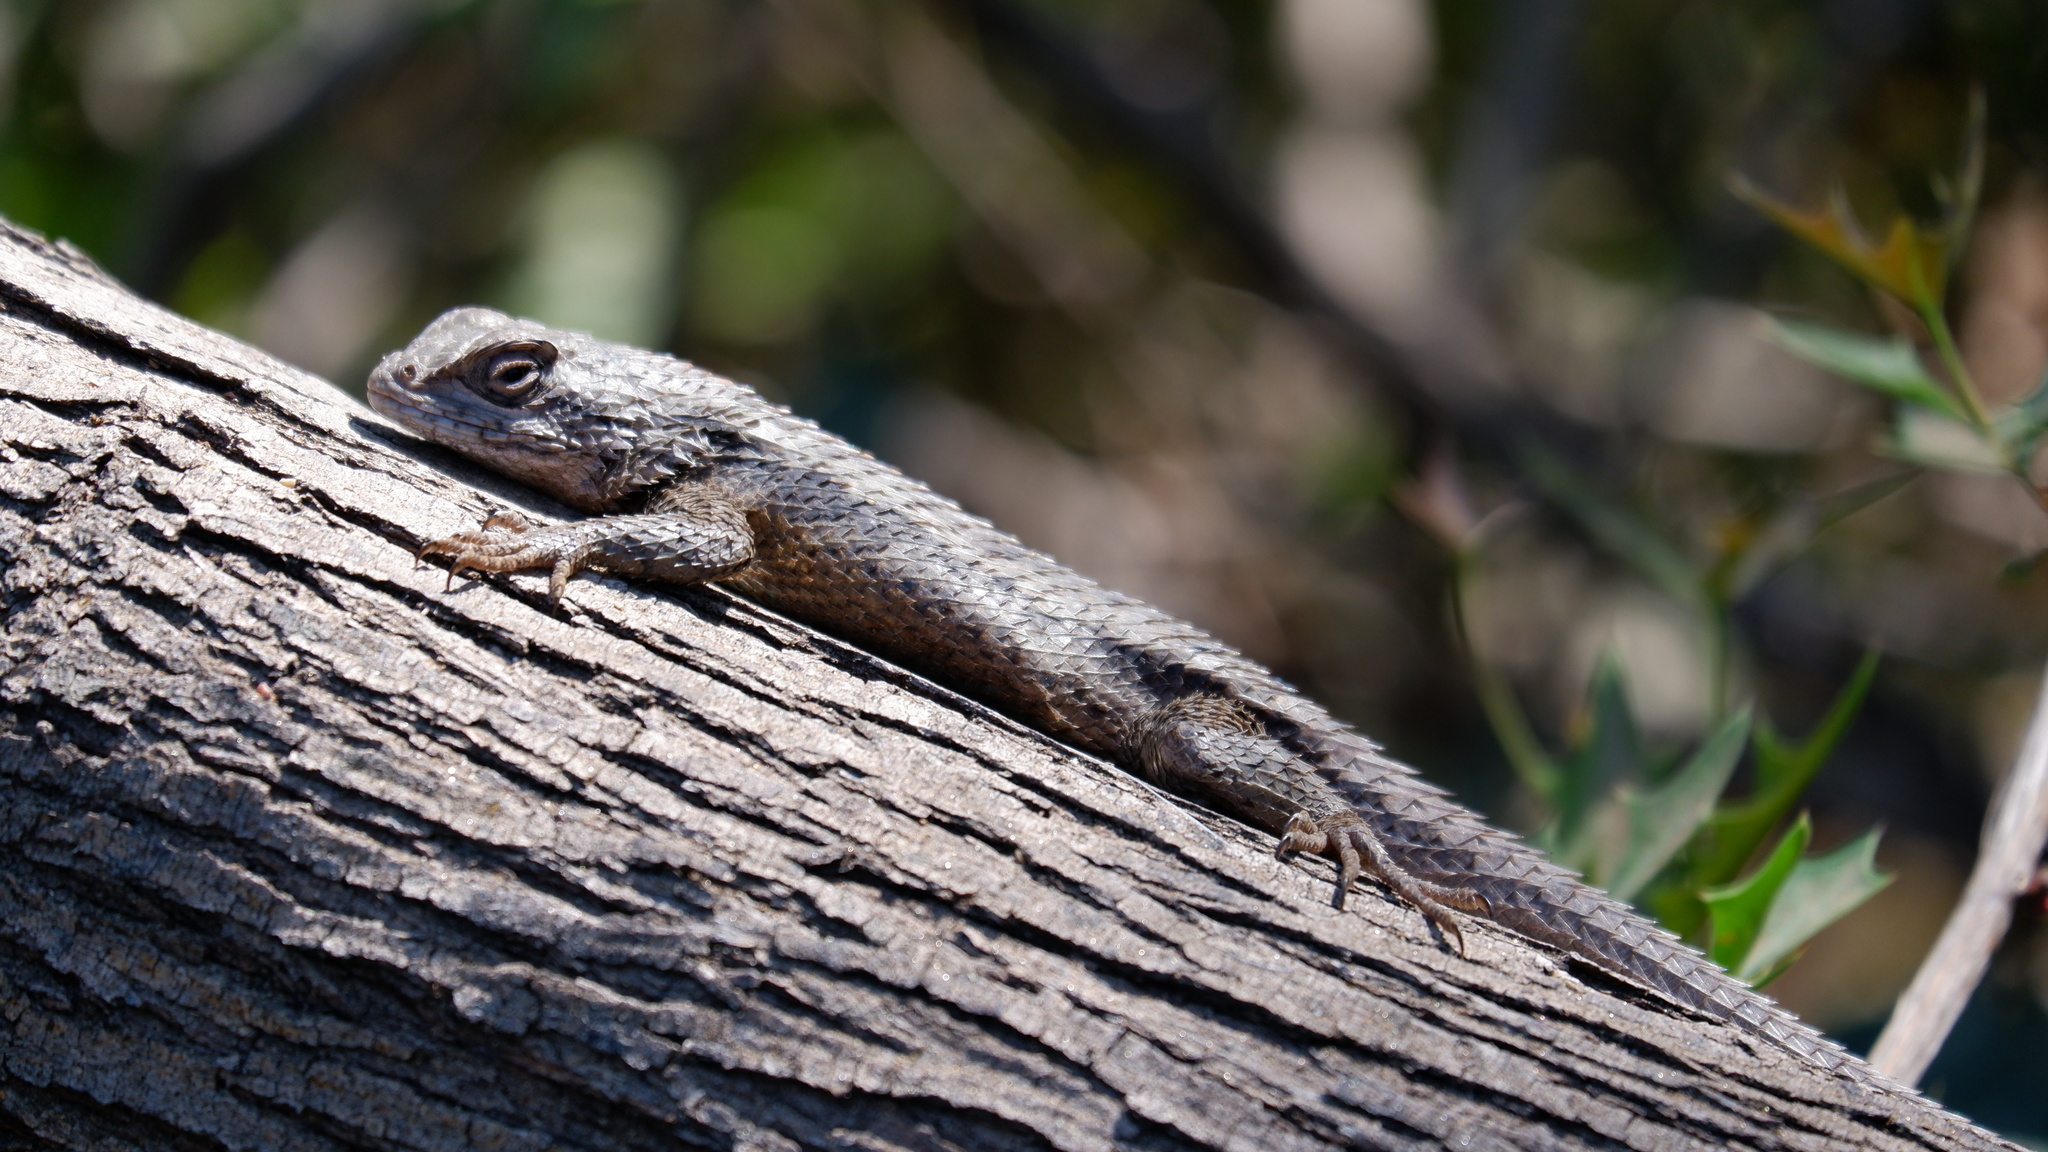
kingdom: Animalia
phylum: Chordata
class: Squamata
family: Phrynosomatidae
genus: Sceloporus
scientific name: Sceloporus olivaceus
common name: Texas spiny lizard
